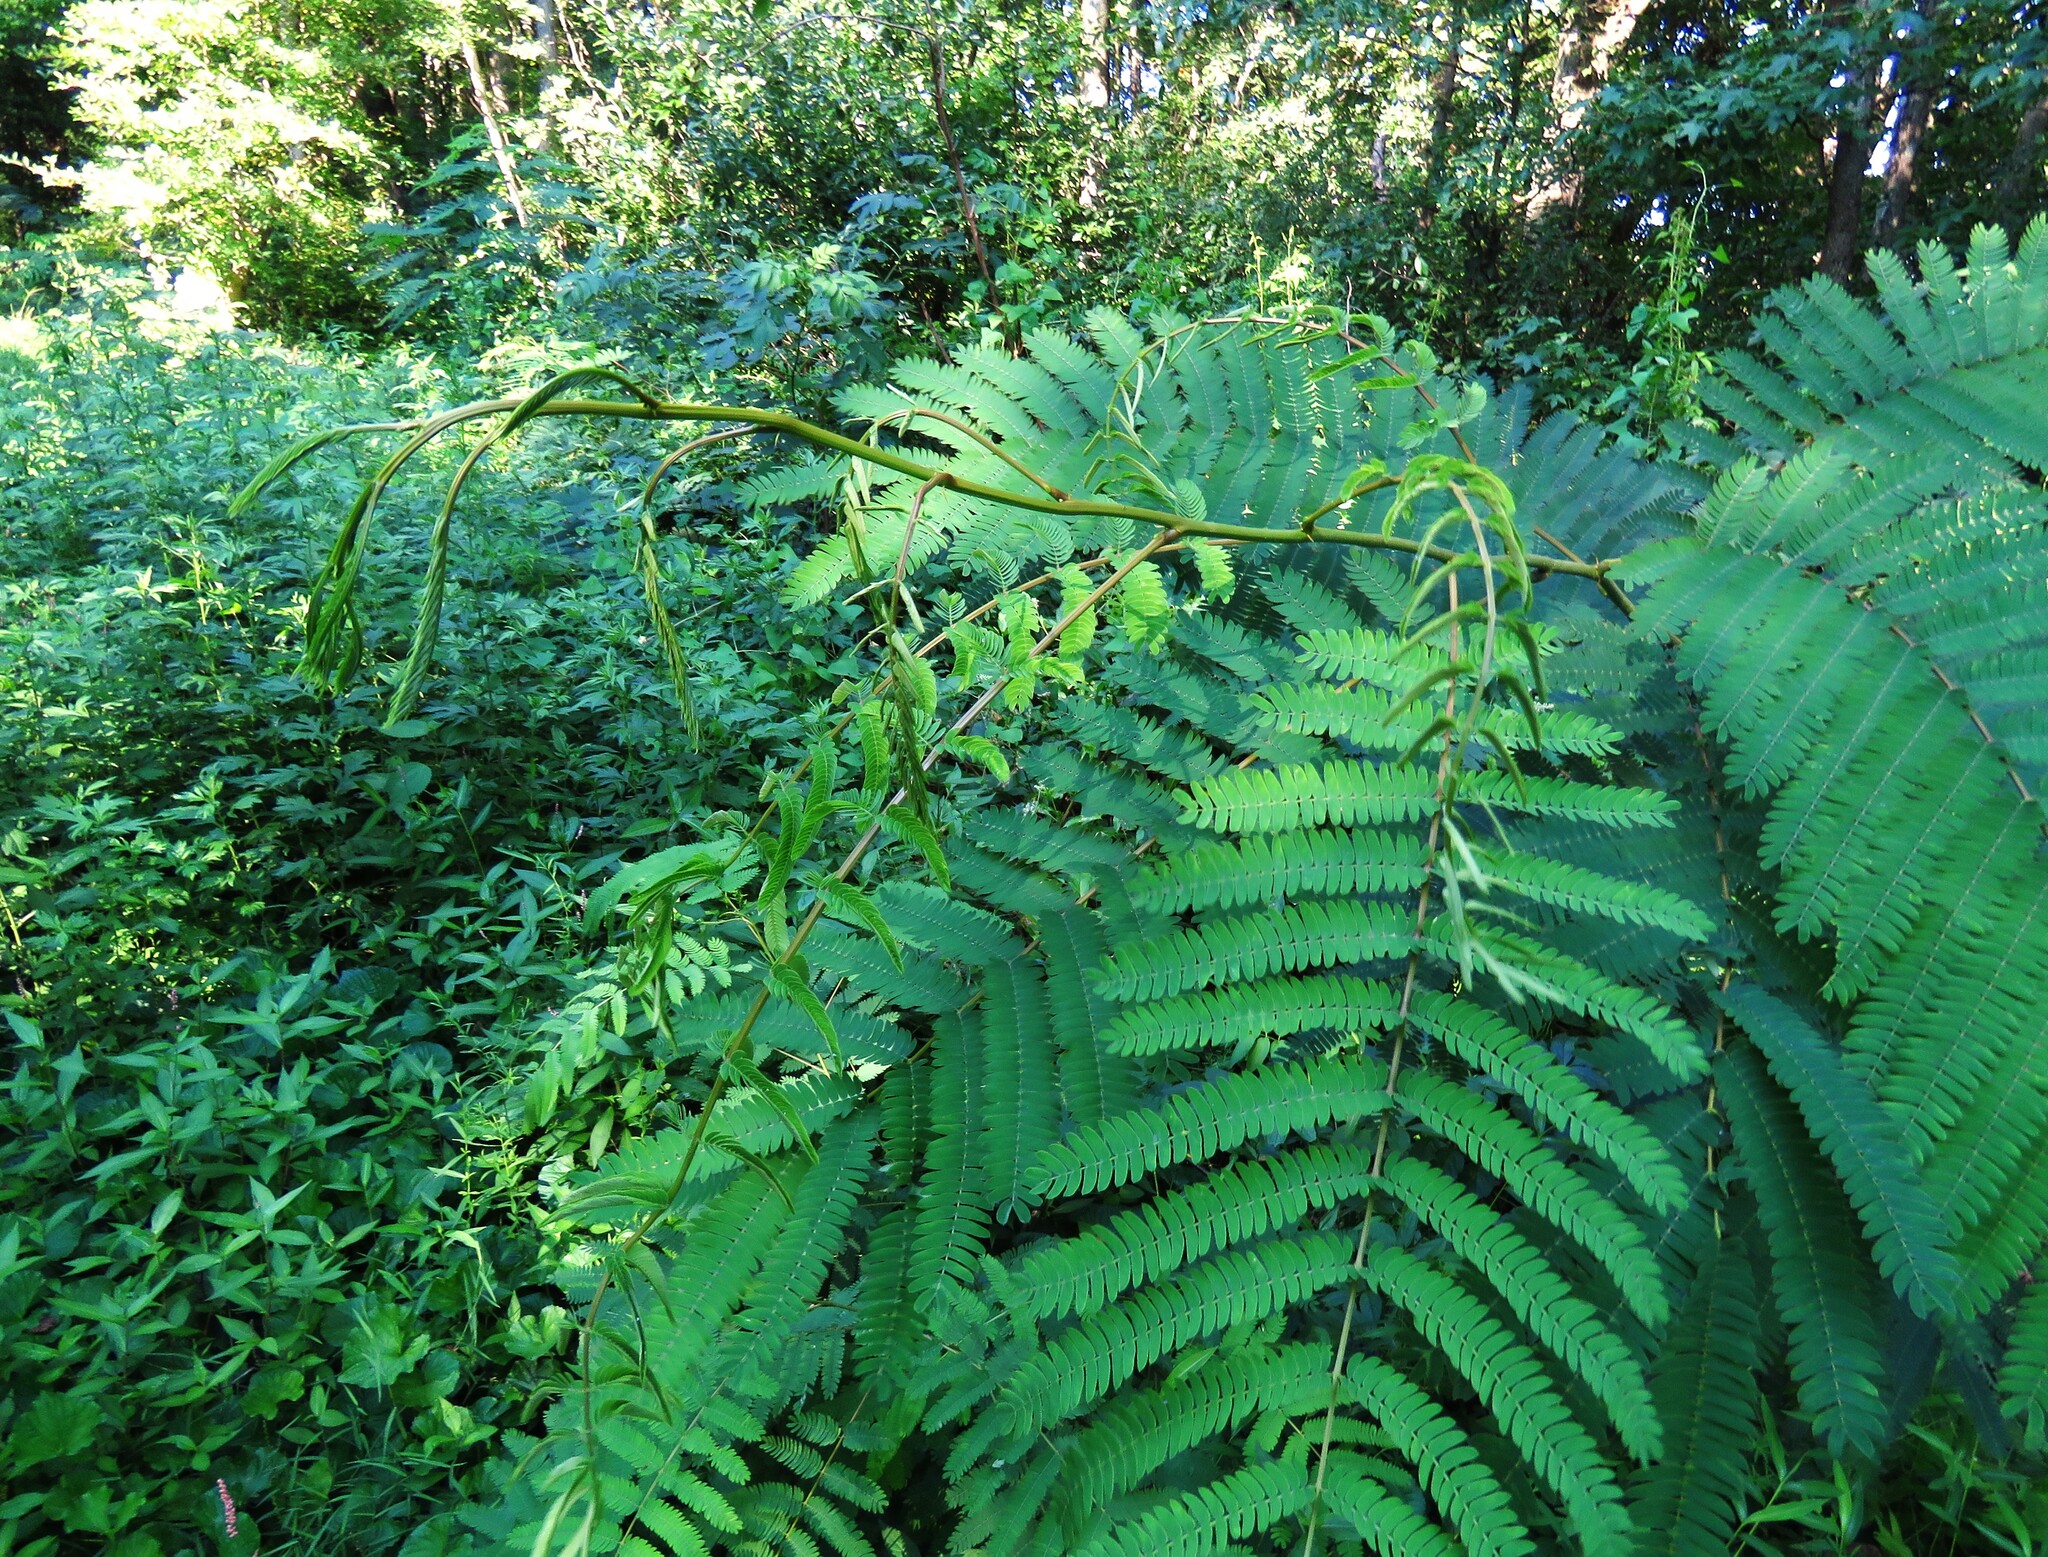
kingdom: Plantae
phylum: Tracheophyta
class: Magnoliopsida
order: Fabales
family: Fabaceae
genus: Albizia
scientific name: Albizia julibrissin
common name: Silktree
